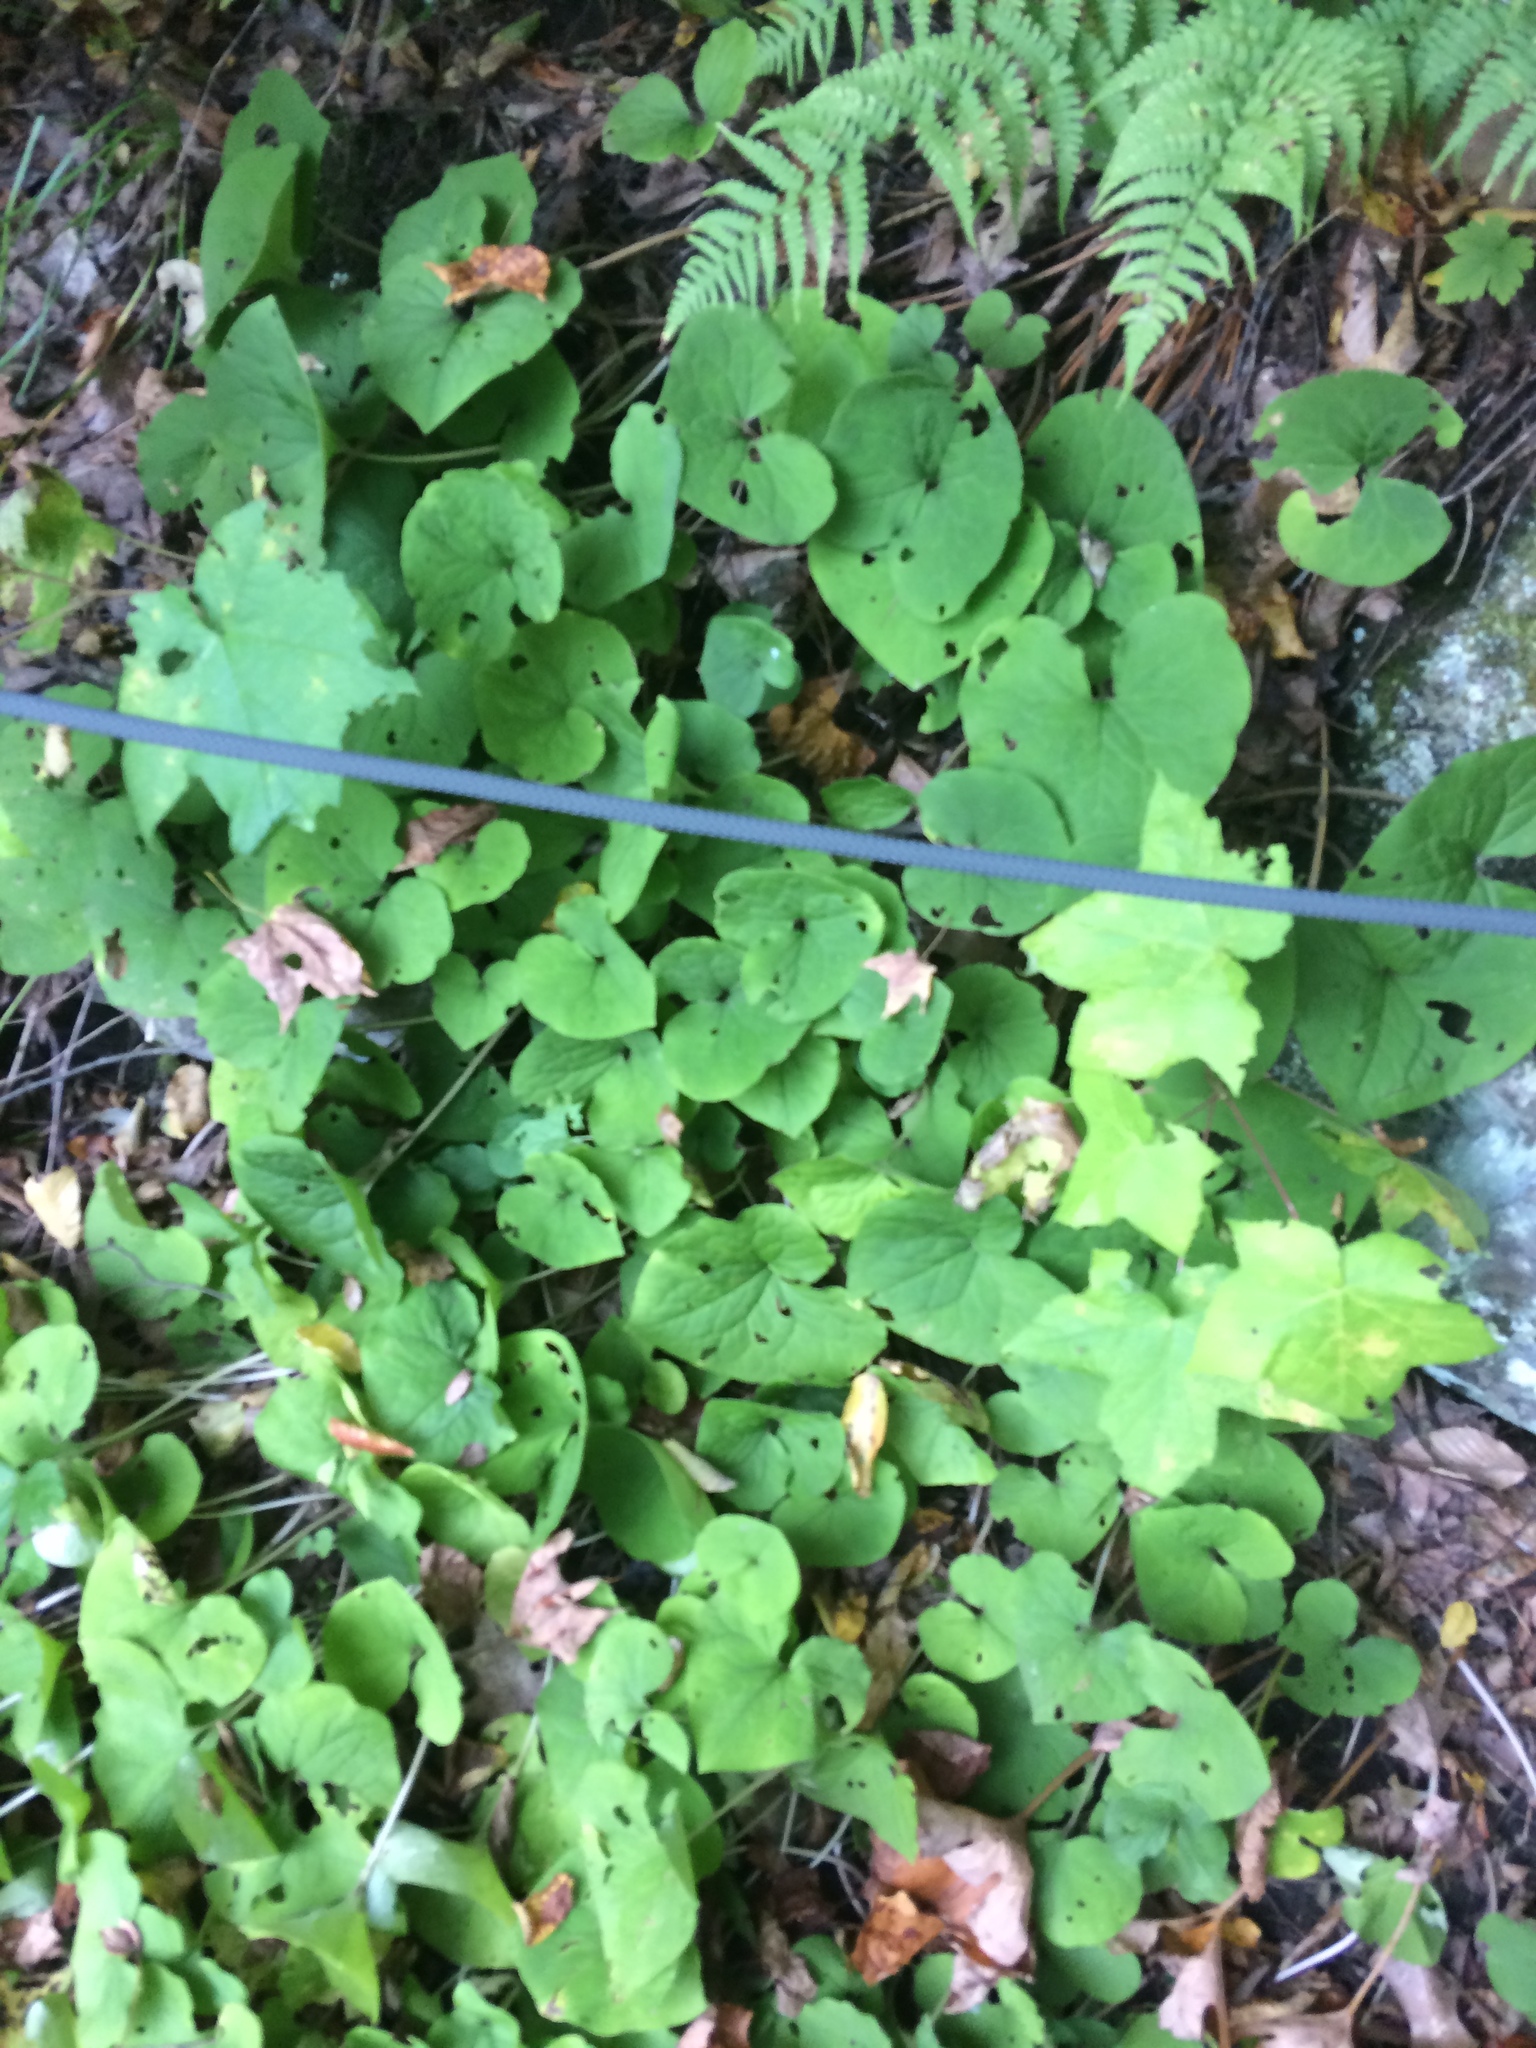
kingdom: Plantae
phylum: Tracheophyta
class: Magnoliopsida
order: Piperales
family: Aristolochiaceae
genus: Asarum
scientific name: Asarum canadense
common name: Wild ginger
